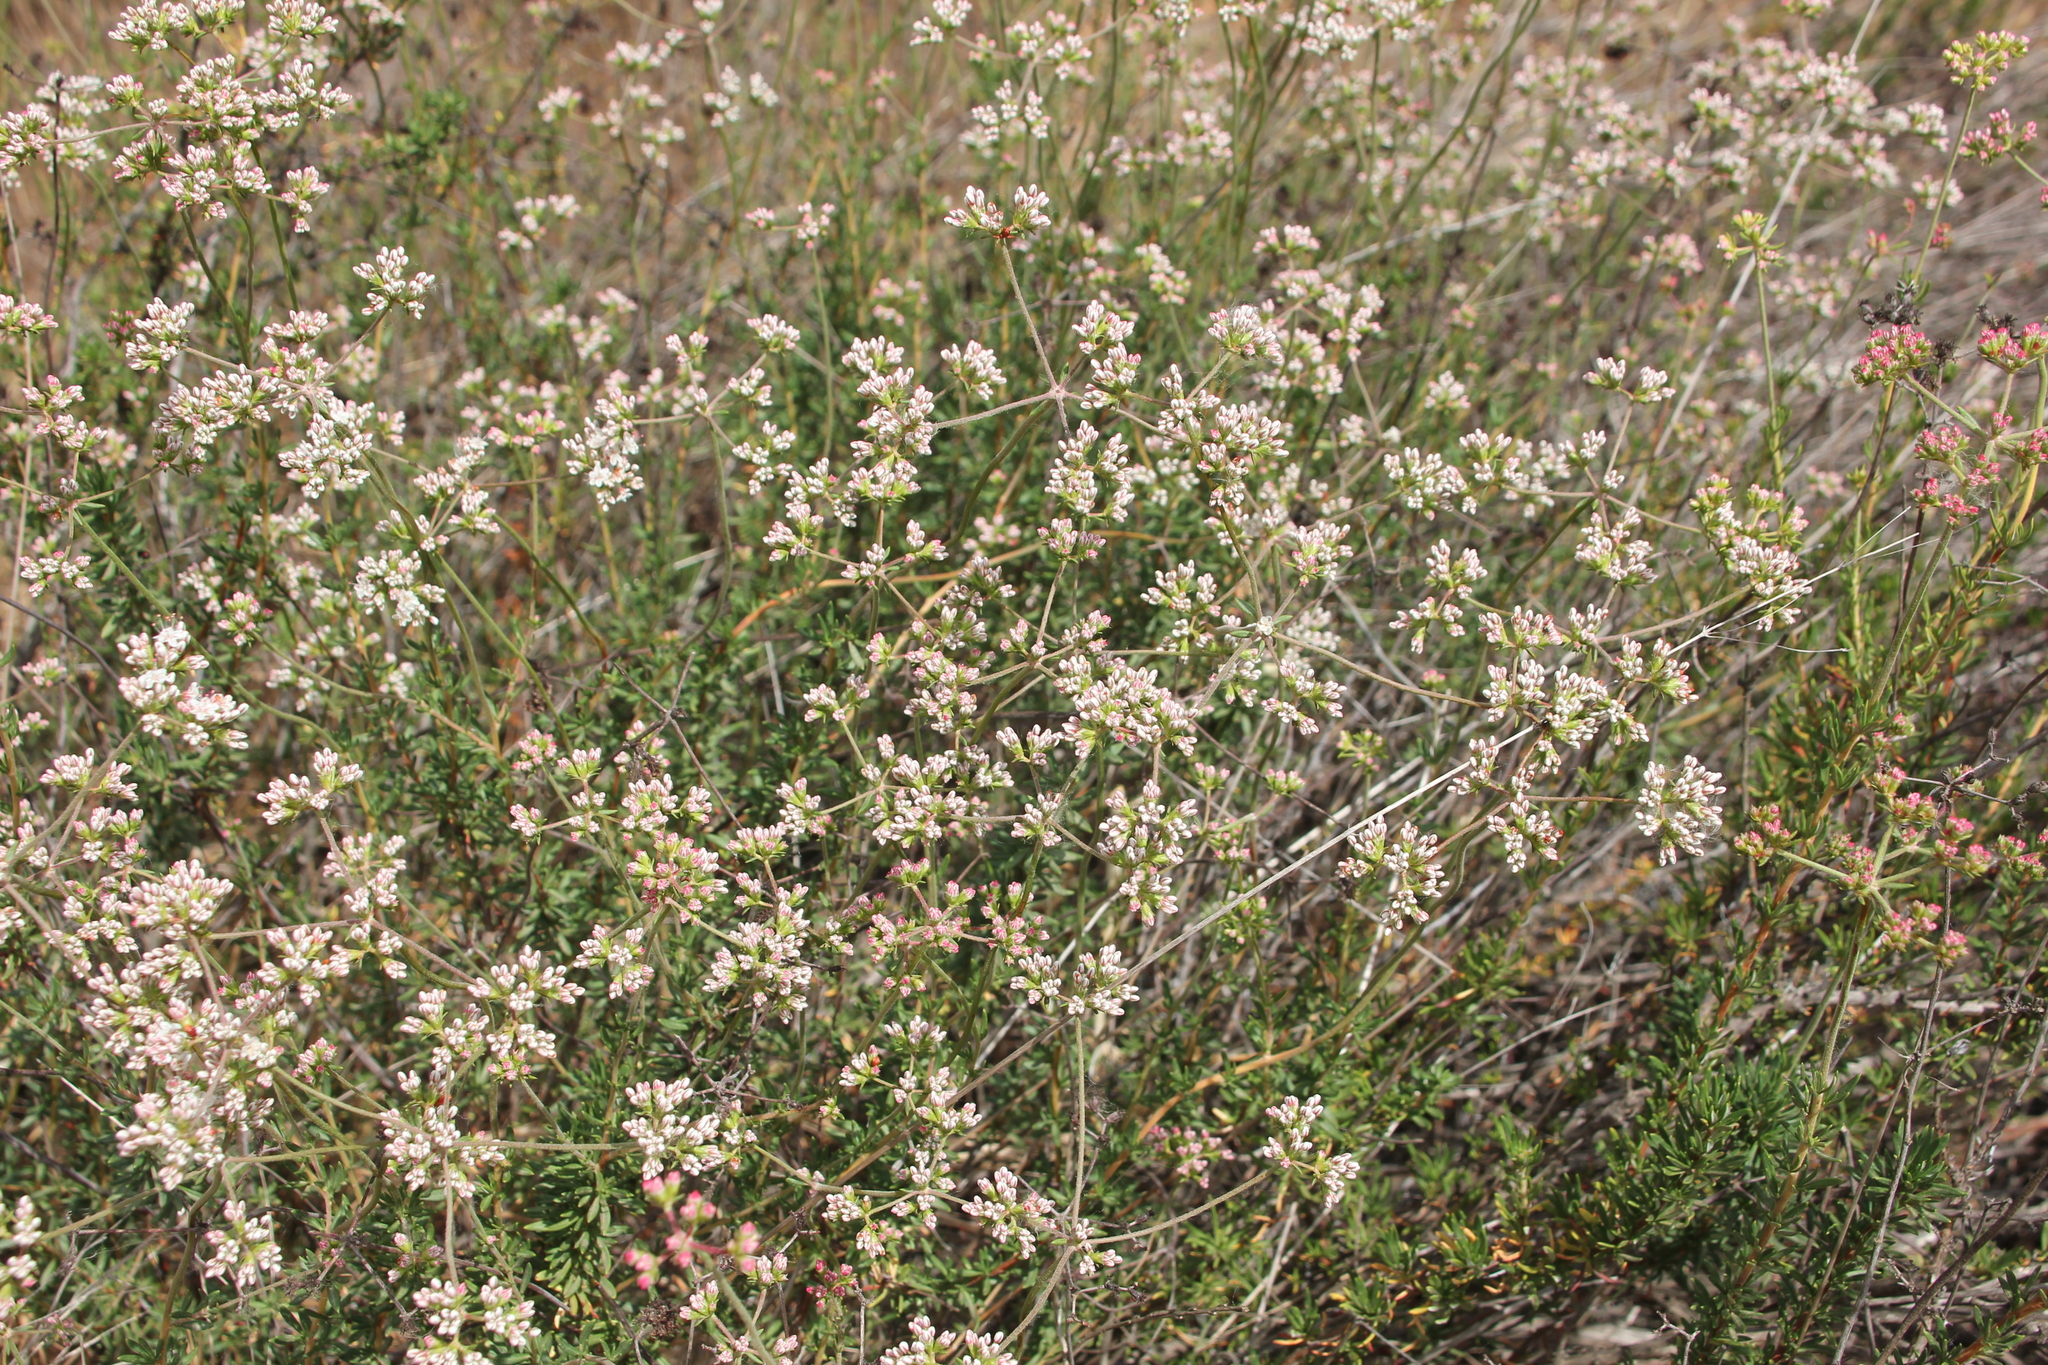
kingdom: Plantae
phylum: Tracheophyta
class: Magnoliopsida
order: Caryophyllales
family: Polygonaceae
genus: Eriogonum
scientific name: Eriogonum fasciculatum
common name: California wild buckwheat
